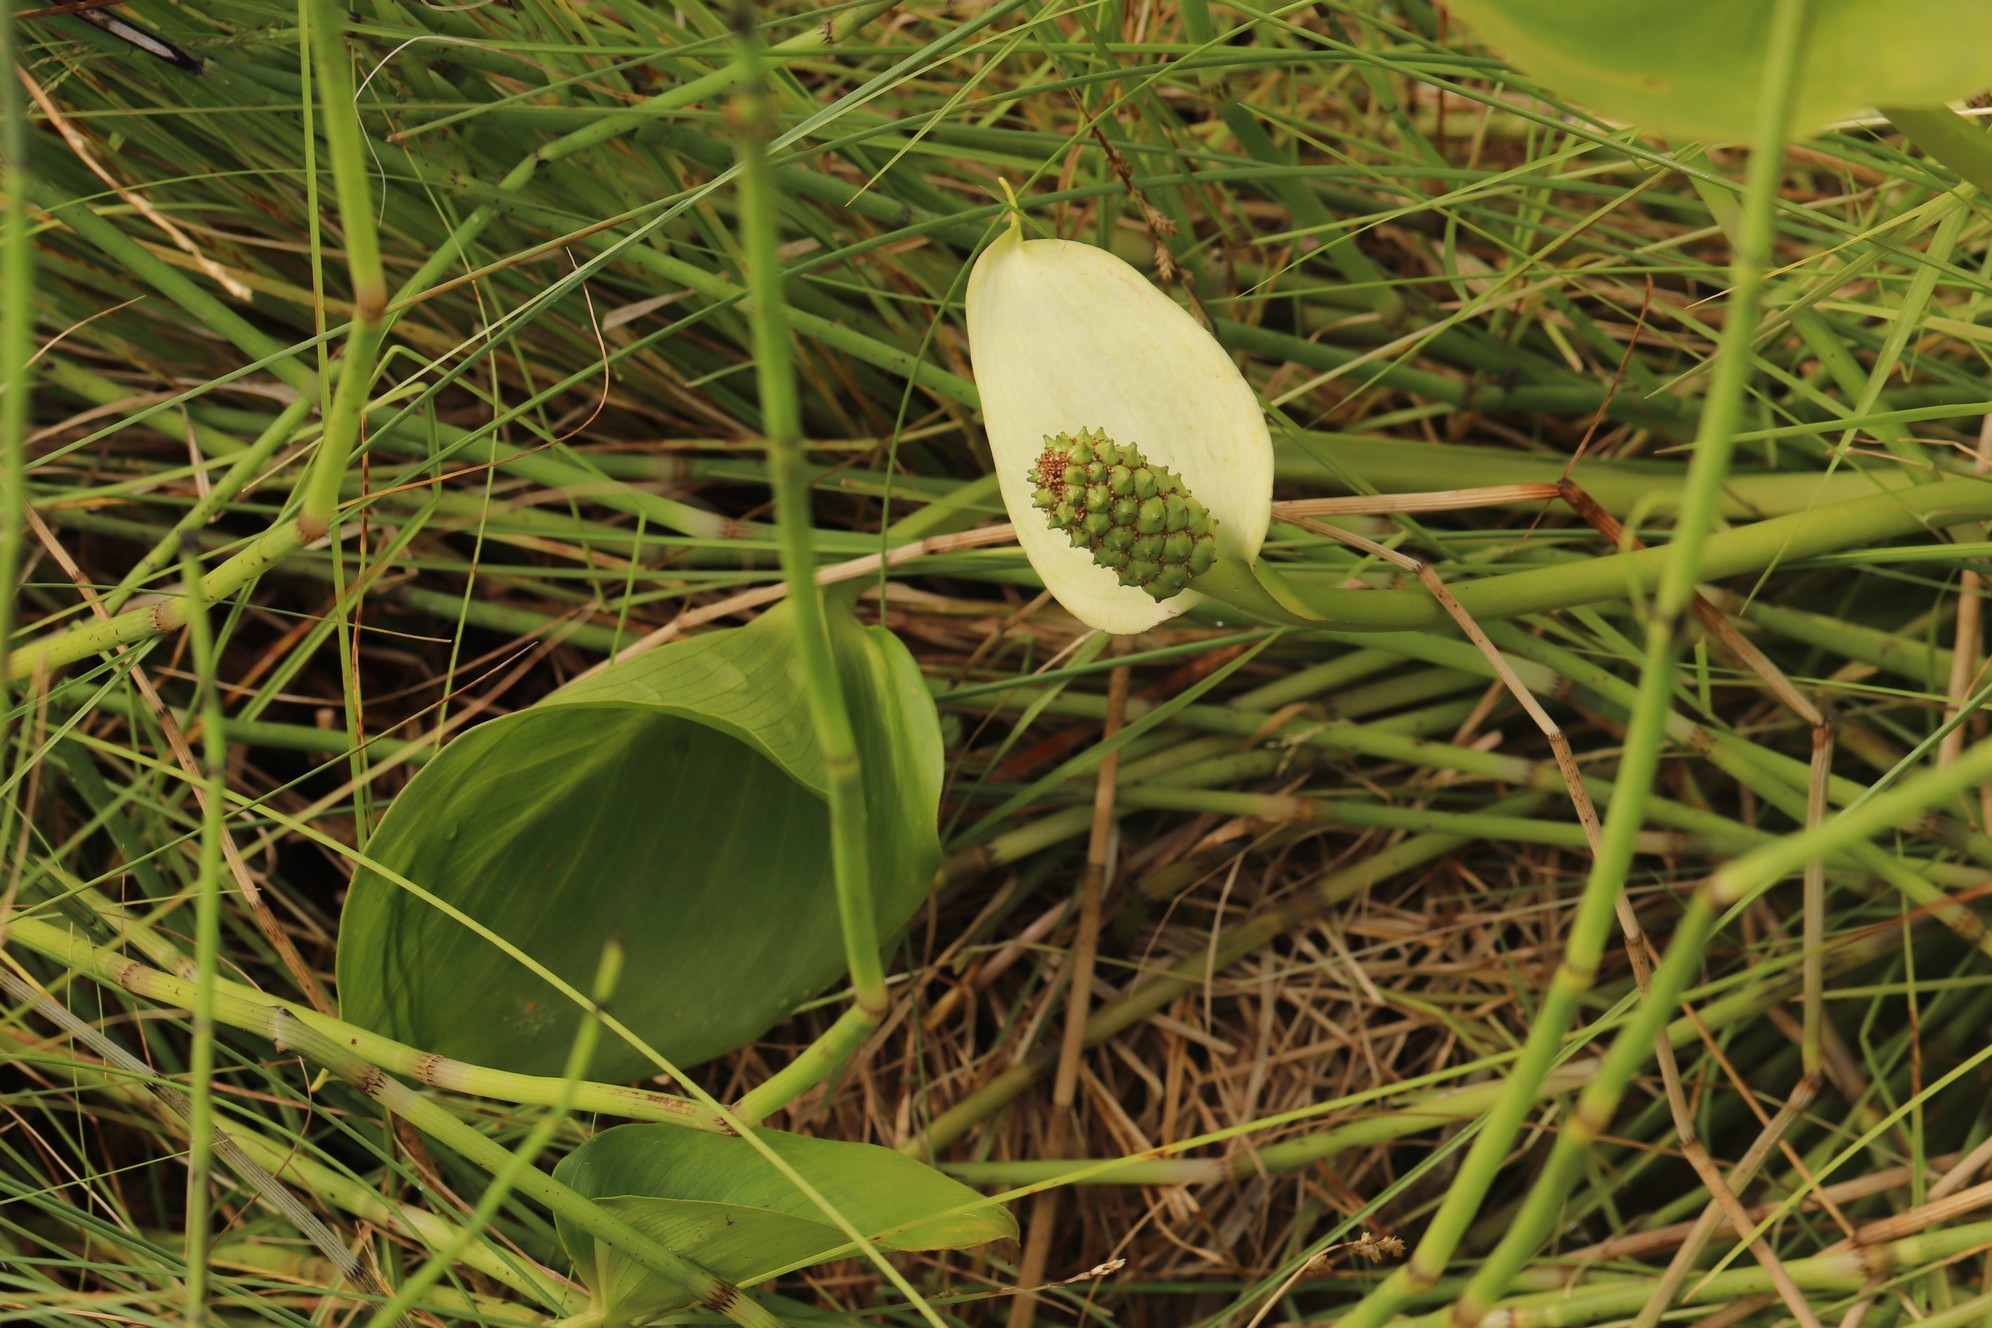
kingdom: Plantae
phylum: Tracheophyta
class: Liliopsida
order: Alismatales
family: Araceae
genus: Calla
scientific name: Calla palustris
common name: Bog arum
